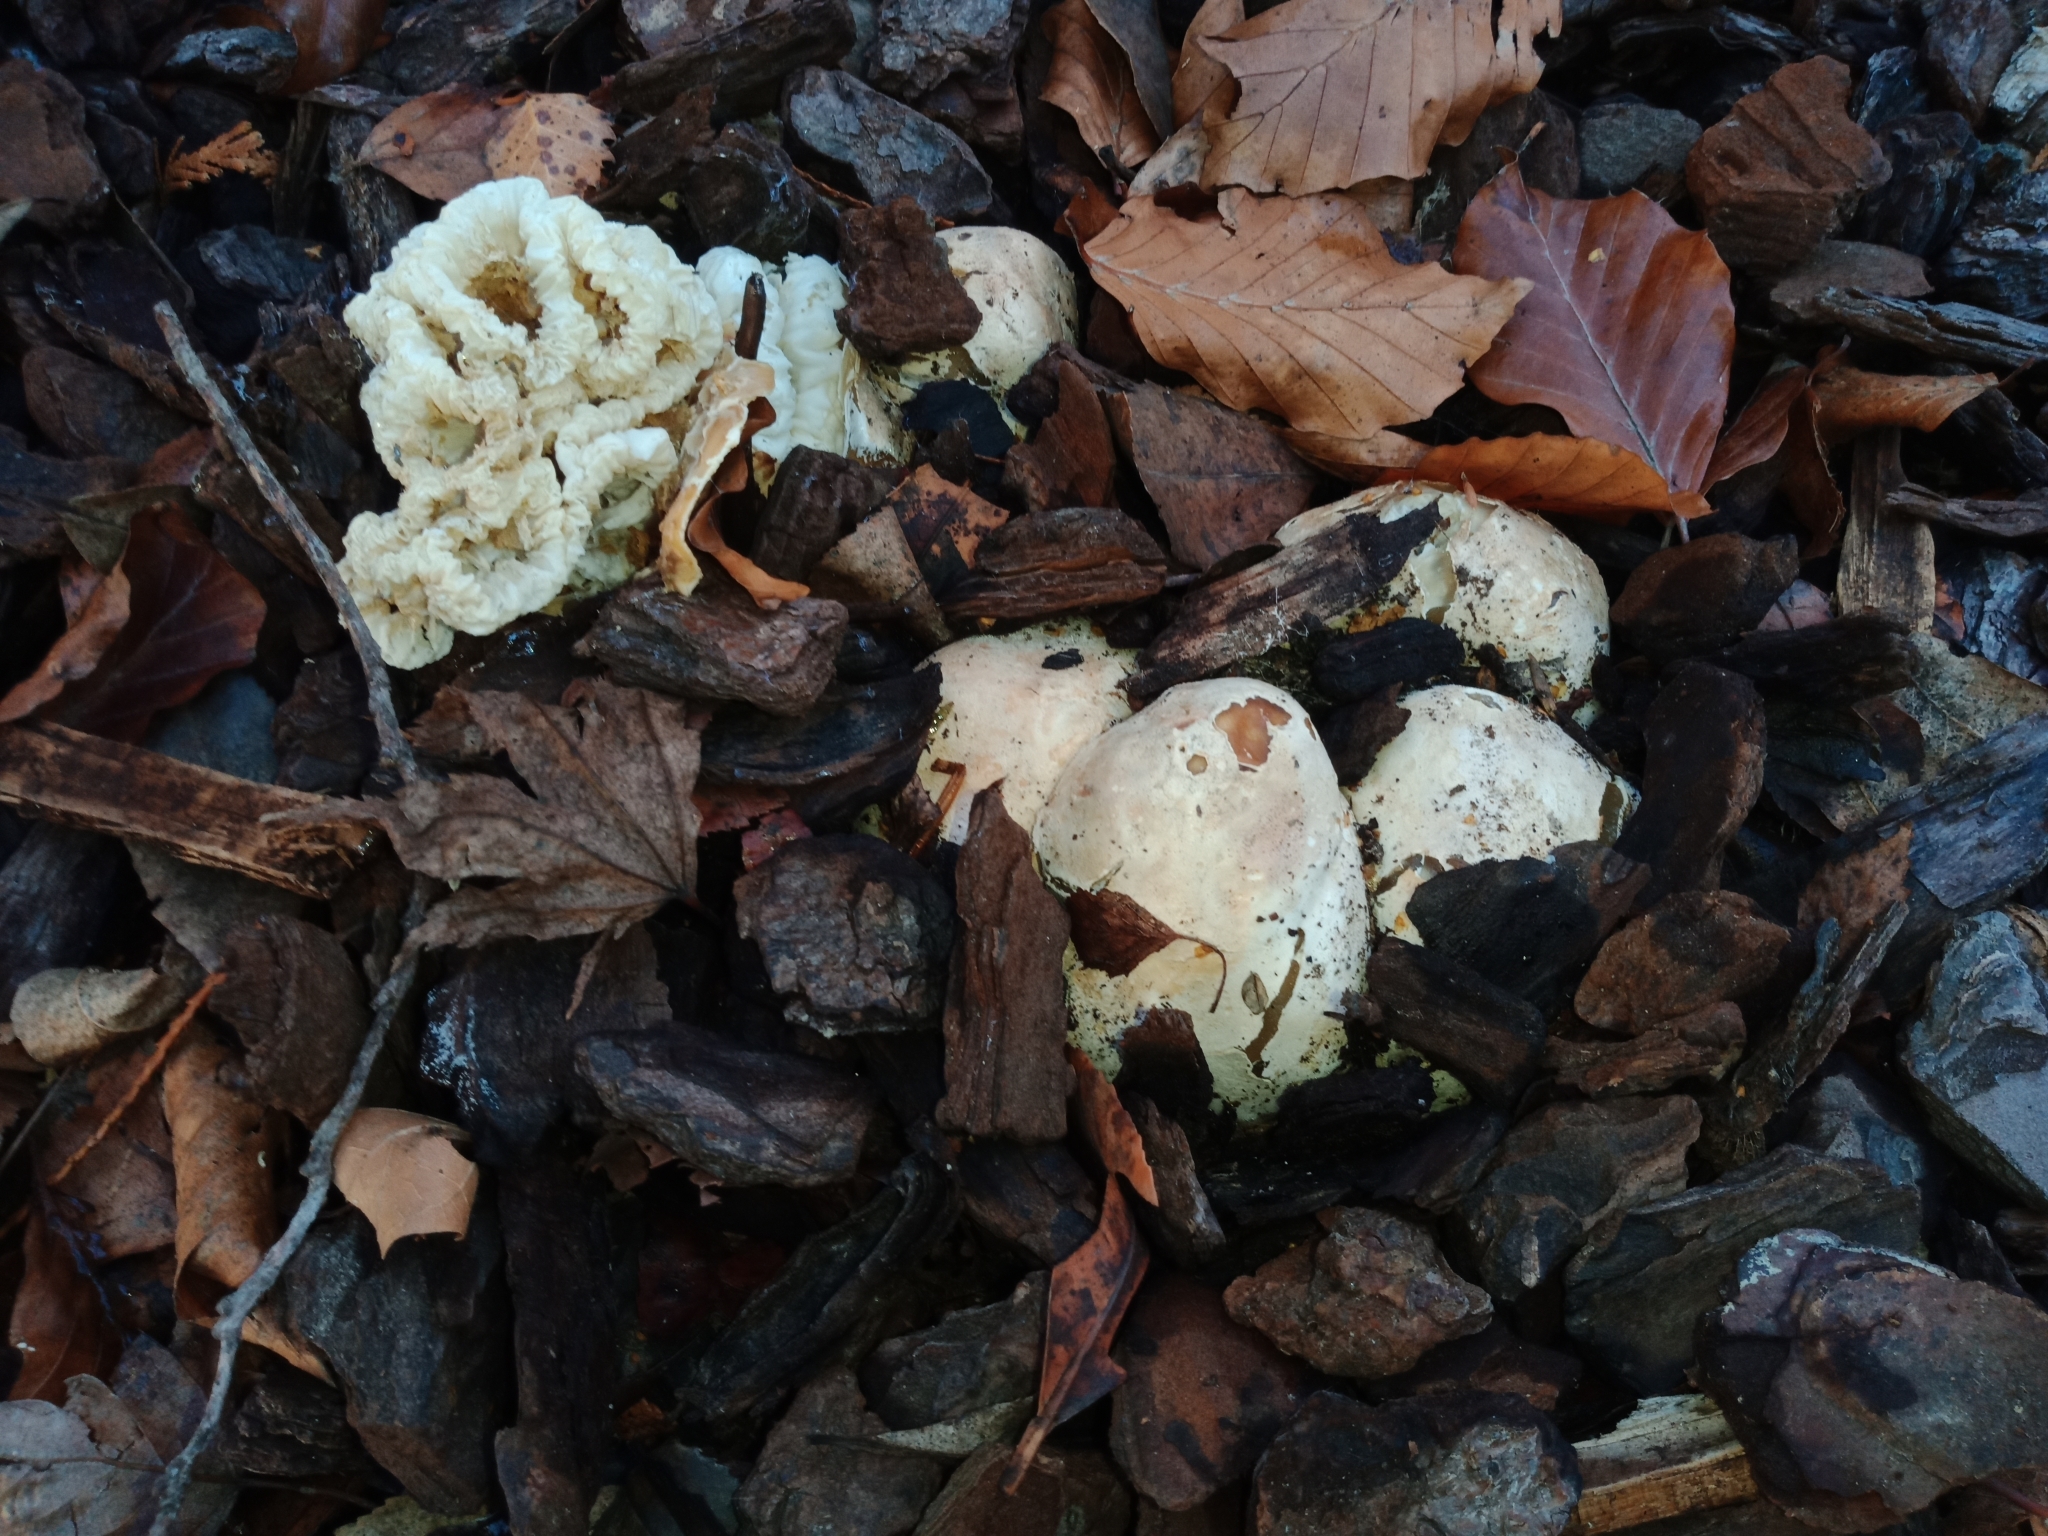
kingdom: Fungi
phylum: Basidiomycota
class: Agaricomycetes
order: Phallales
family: Phallaceae
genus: Ileodictyon
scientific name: Ileodictyon cibarium
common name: Basket fungus
